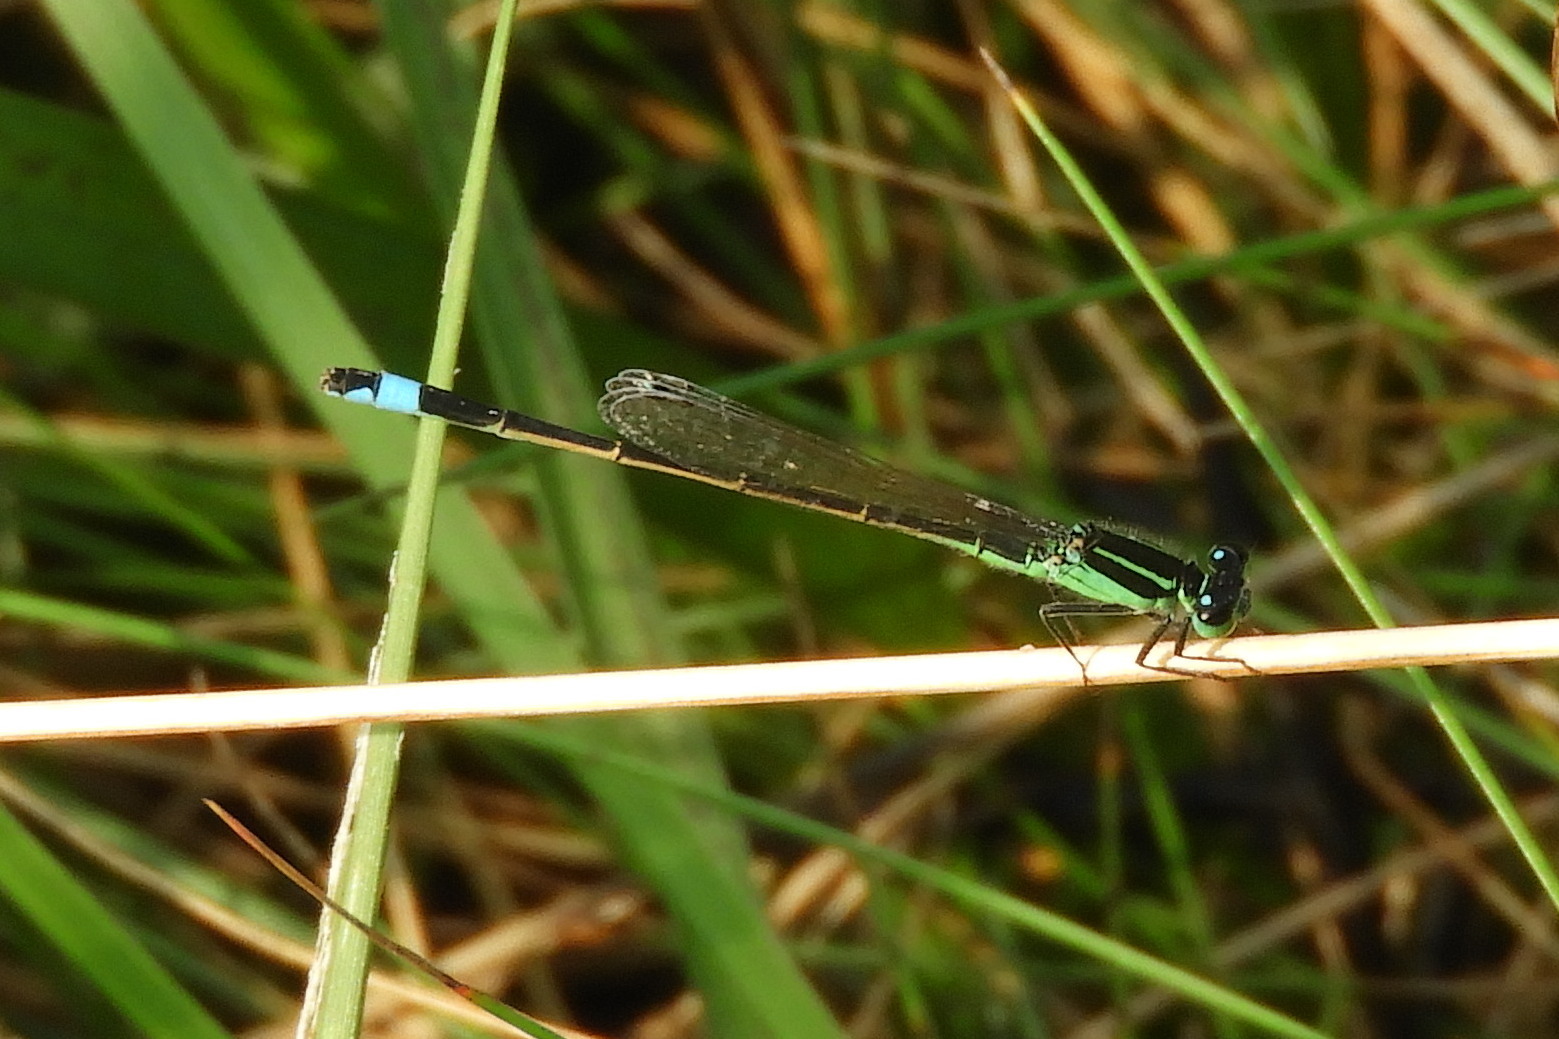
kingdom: Animalia
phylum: Arthropoda
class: Insecta
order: Odonata
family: Coenagrionidae
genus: Ischnura
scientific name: Ischnura ramburii
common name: Rambur's forktail
